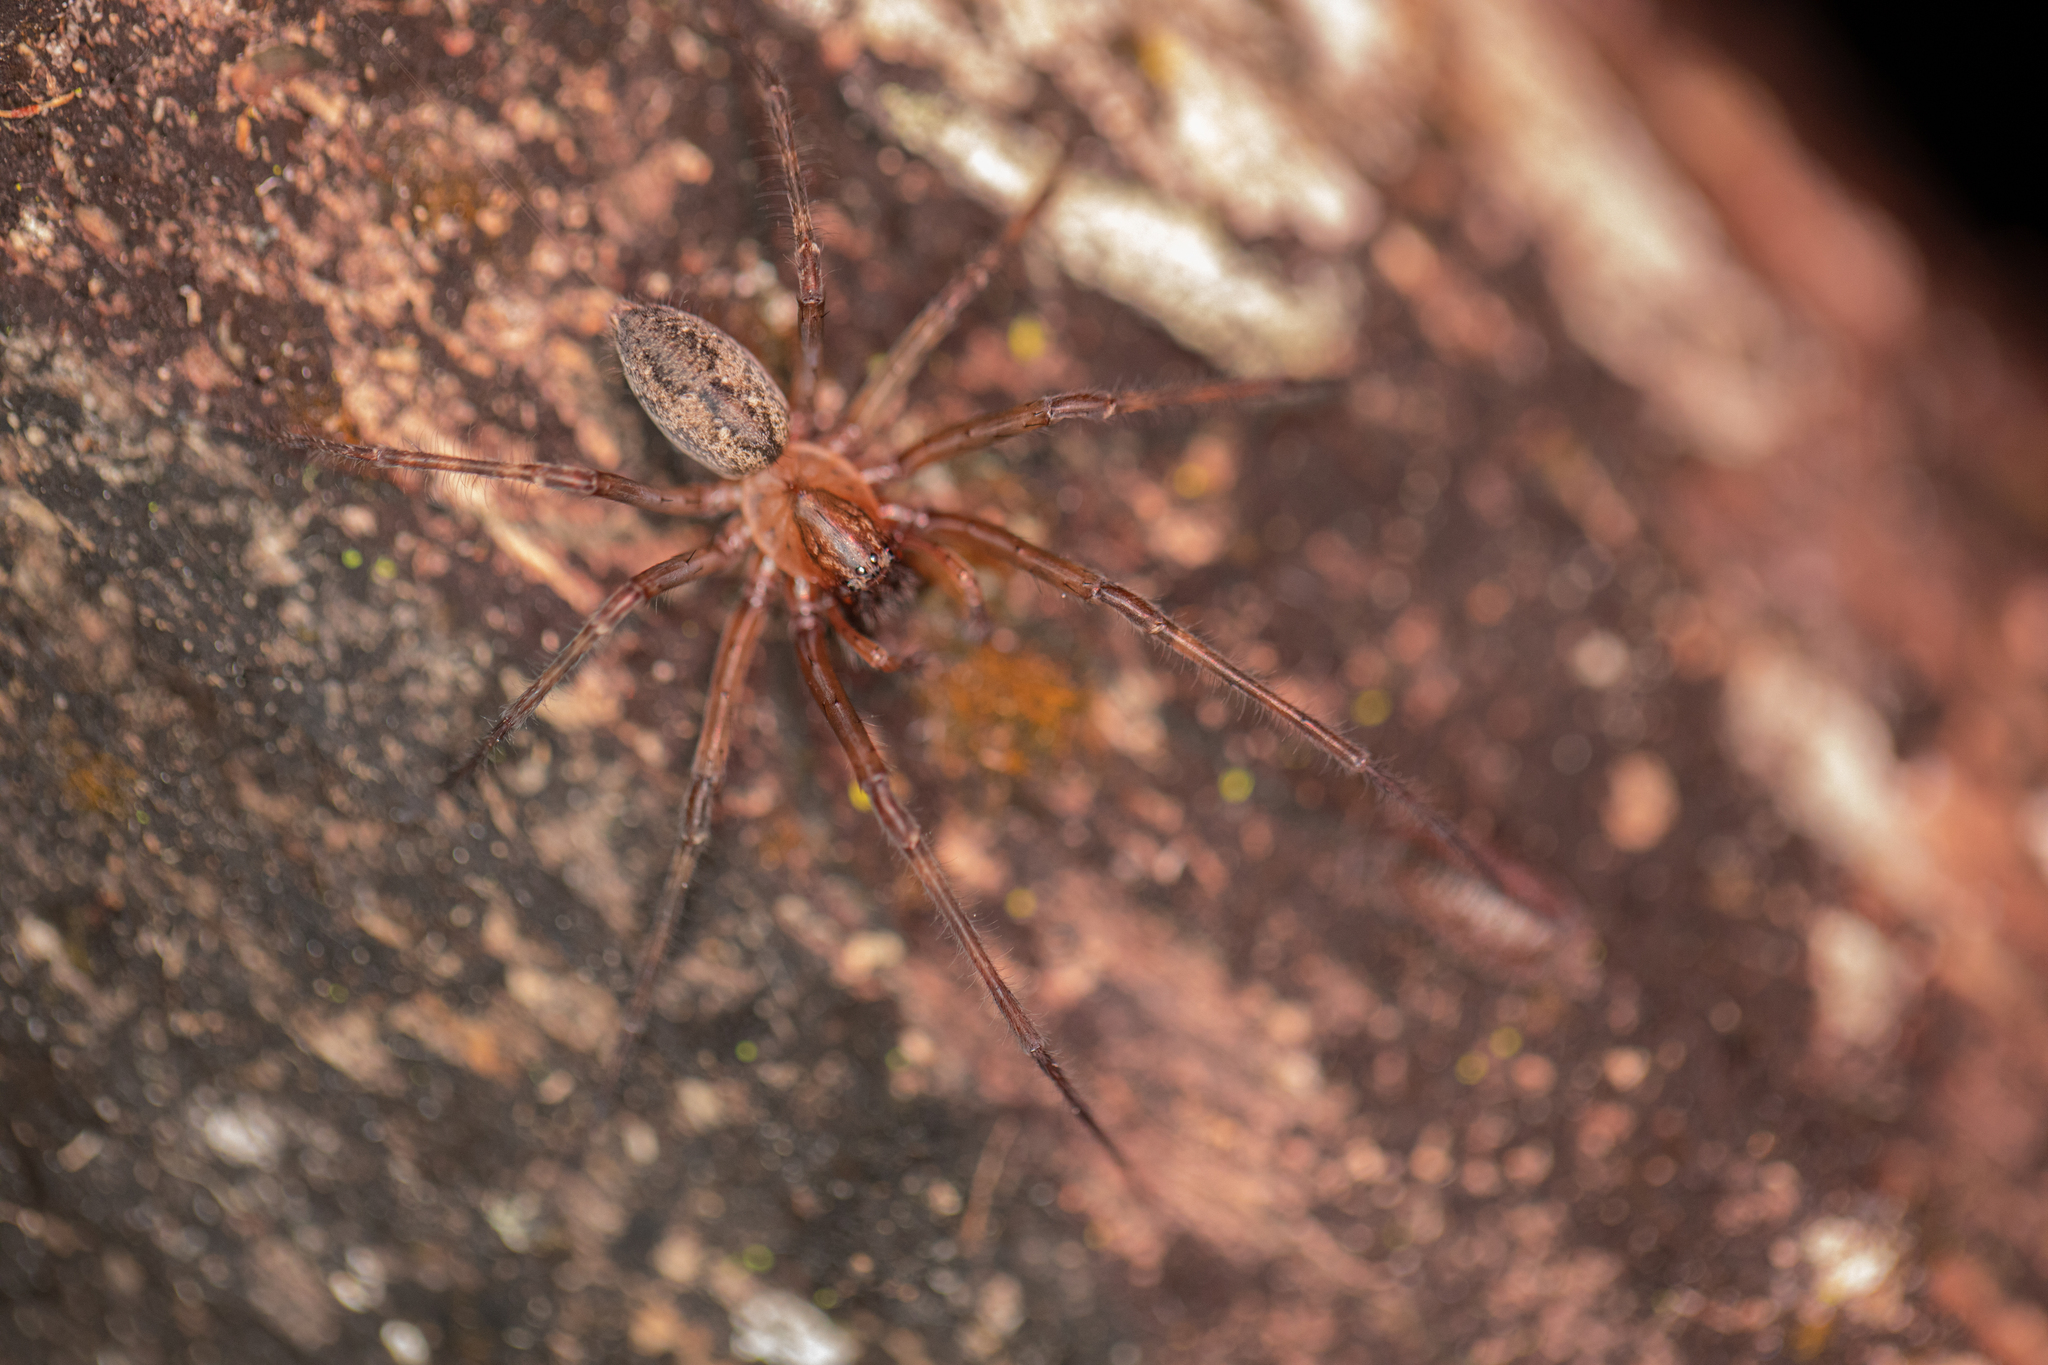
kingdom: Animalia
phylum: Arthropoda
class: Arachnida
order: Araneae
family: Desidae
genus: Nuisiana
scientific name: Nuisiana arboris
